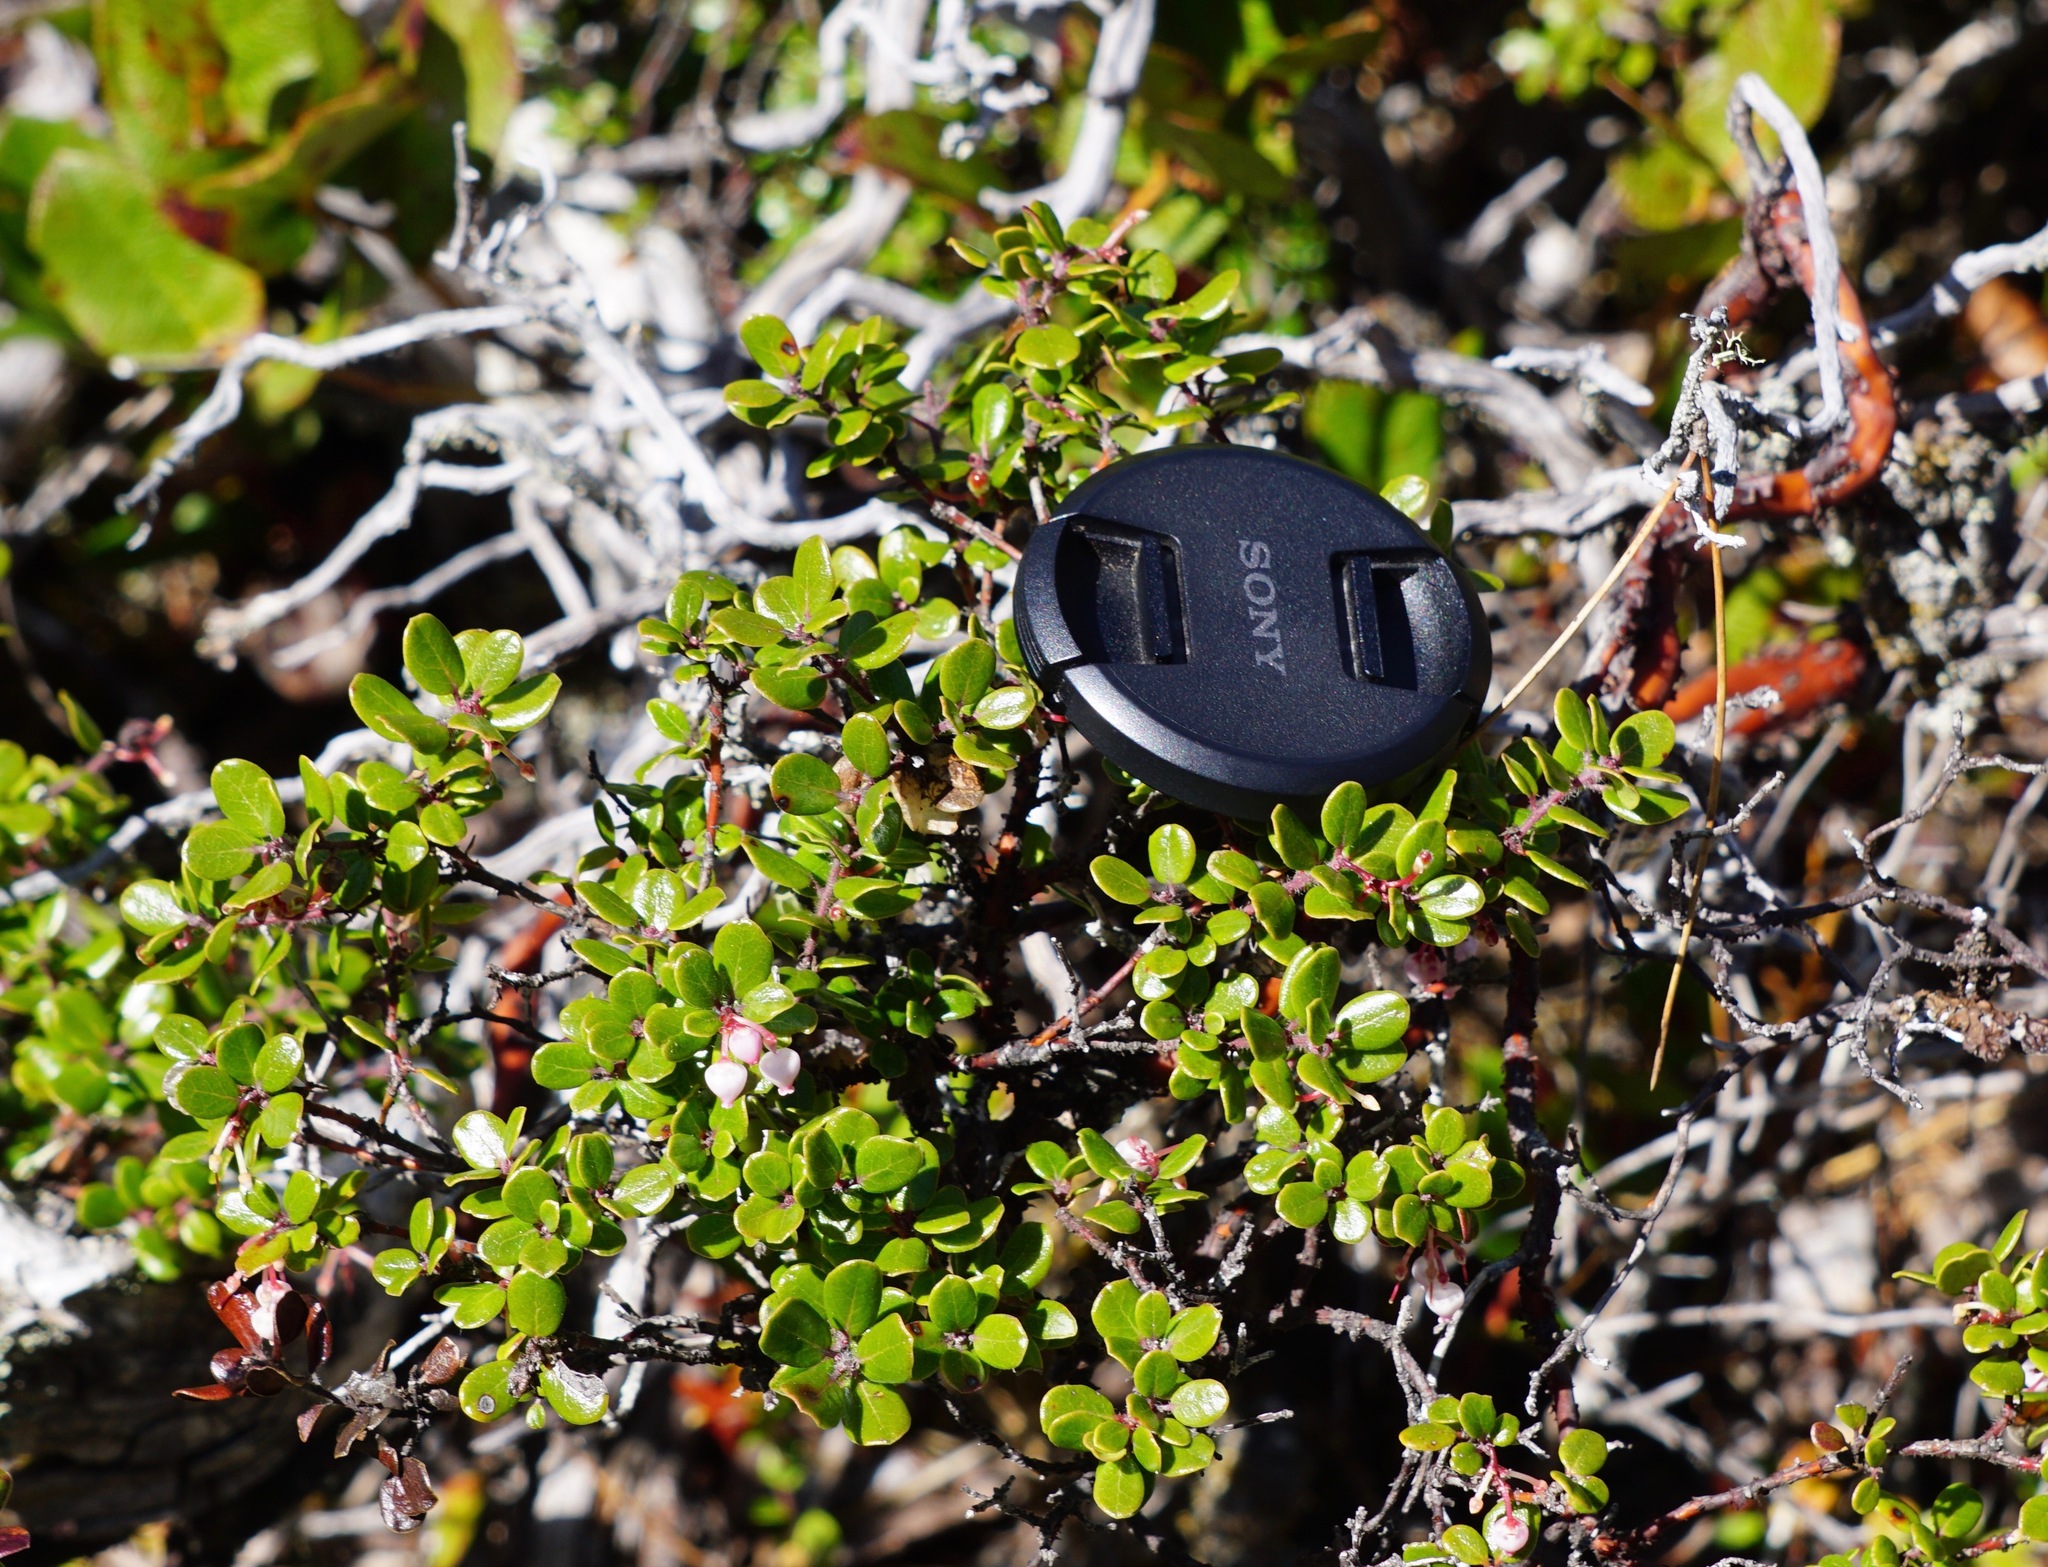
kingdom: Plantae
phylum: Tracheophyta
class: Magnoliopsida
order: Ericales
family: Ericaceae
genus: Arctostaphylos
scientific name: Arctostaphylos nummularia
